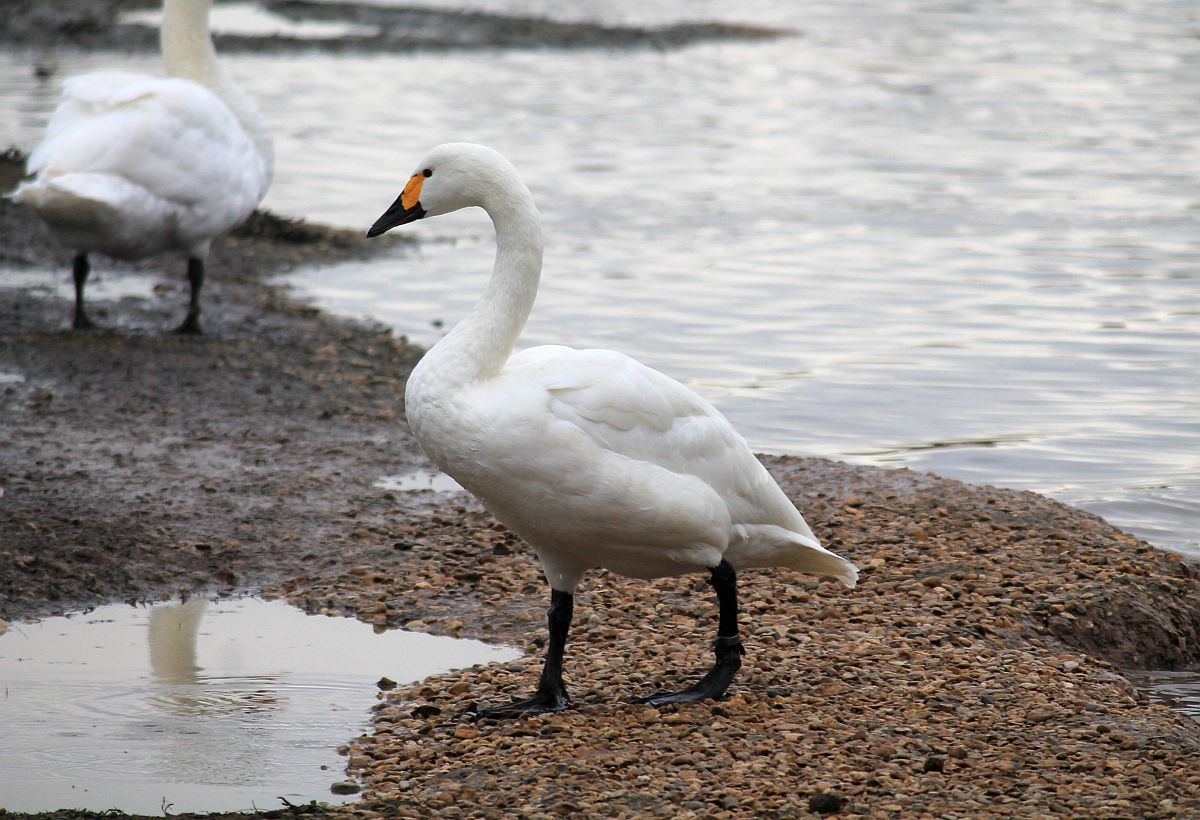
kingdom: Animalia
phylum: Chordata
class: Aves
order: Anseriformes
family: Anatidae
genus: Cygnus
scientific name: Cygnus columbianus
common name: Tundra swan
